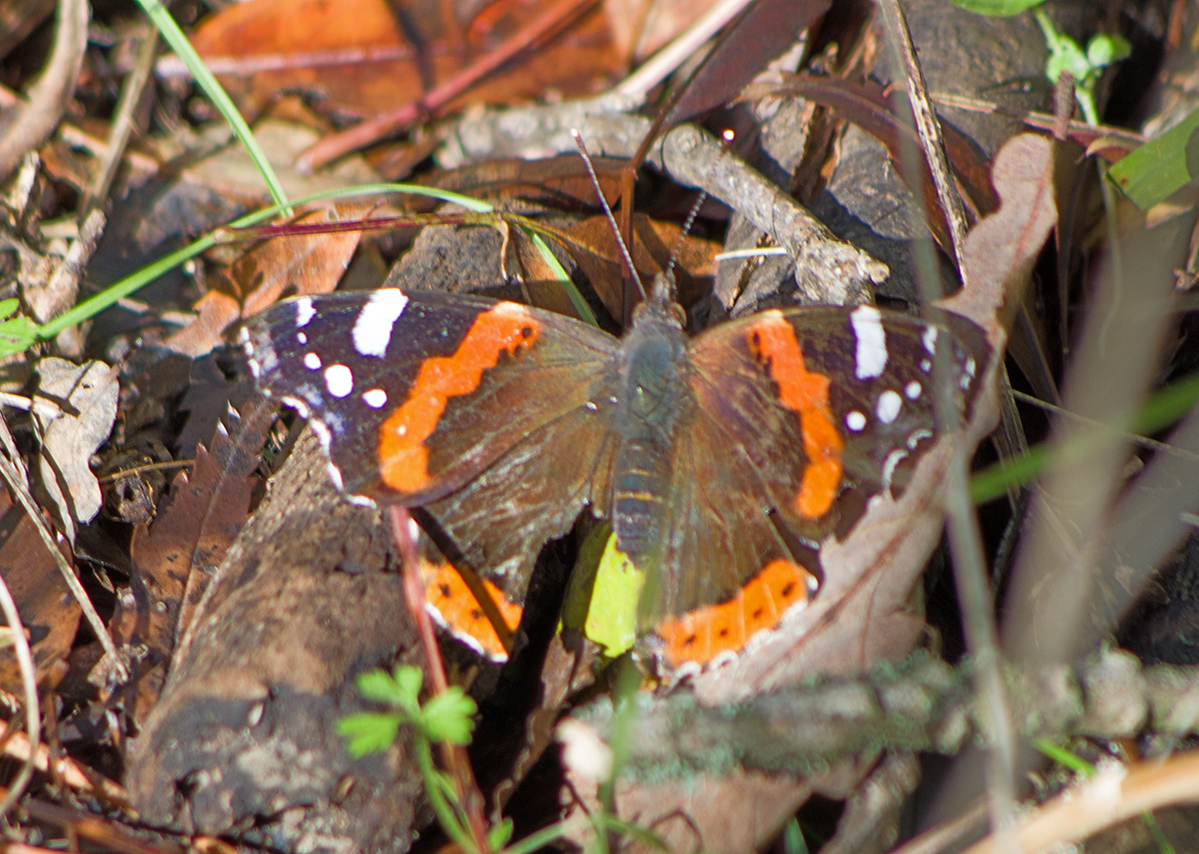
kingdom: Animalia
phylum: Arthropoda
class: Insecta
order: Lepidoptera
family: Nymphalidae
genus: Vanessa
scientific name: Vanessa atalanta
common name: Red admiral
